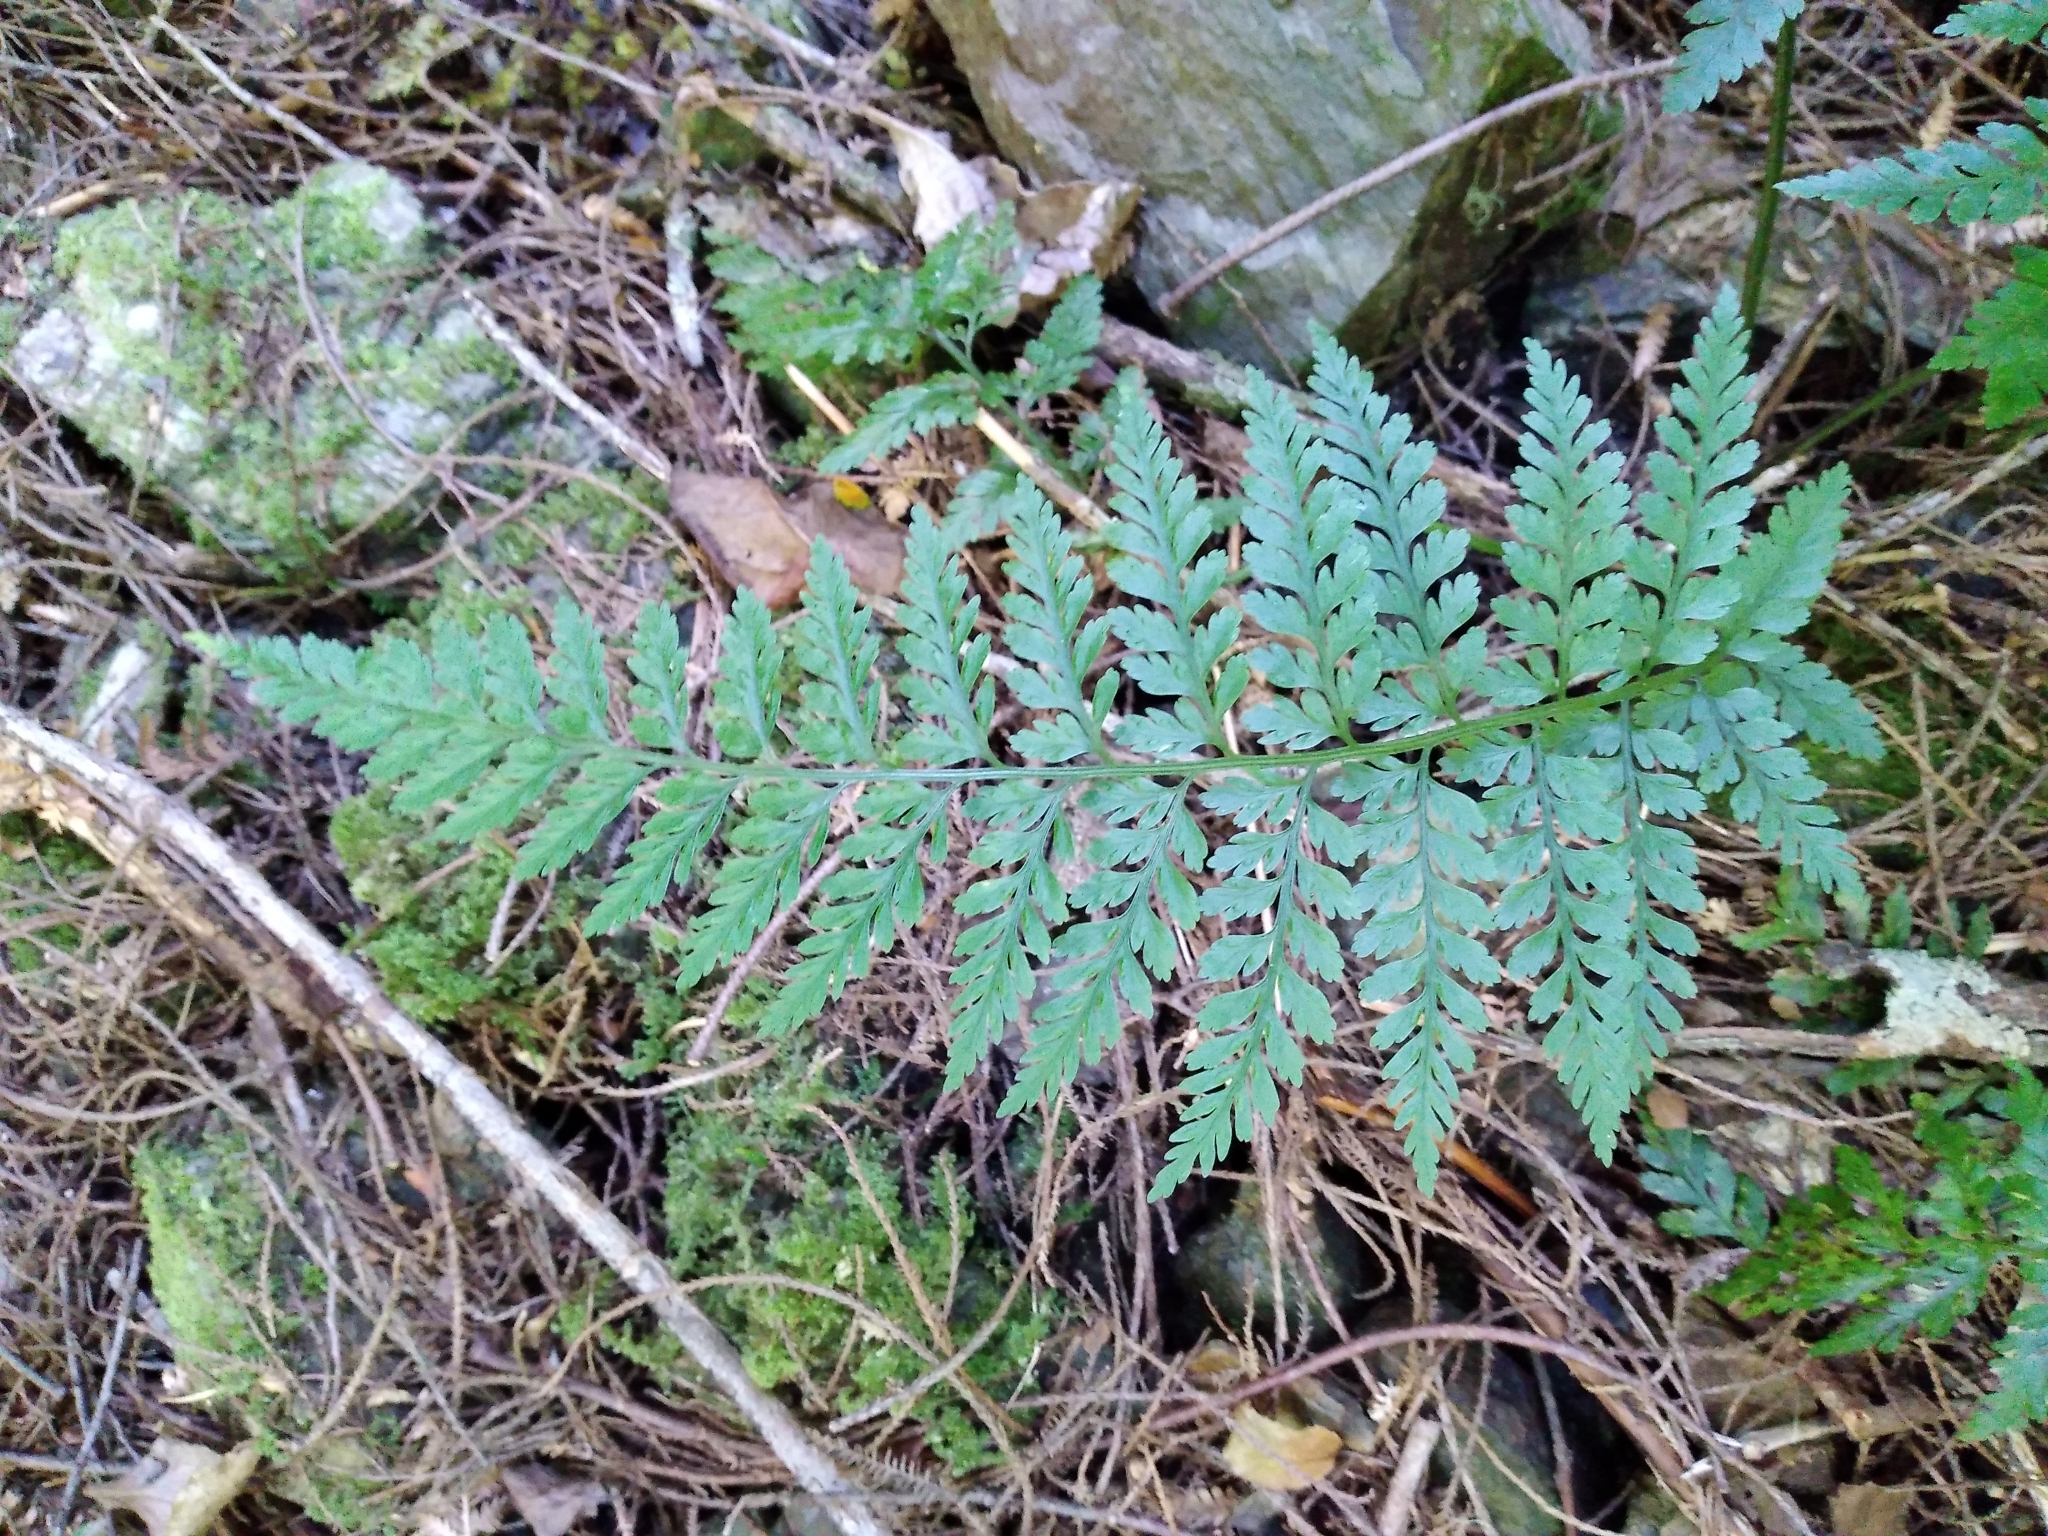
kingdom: Plantae
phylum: Tracheophyta
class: Polypodiopsida
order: Polypodiales
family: Aspleniaceae
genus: Asplenium
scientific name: Asplenium
